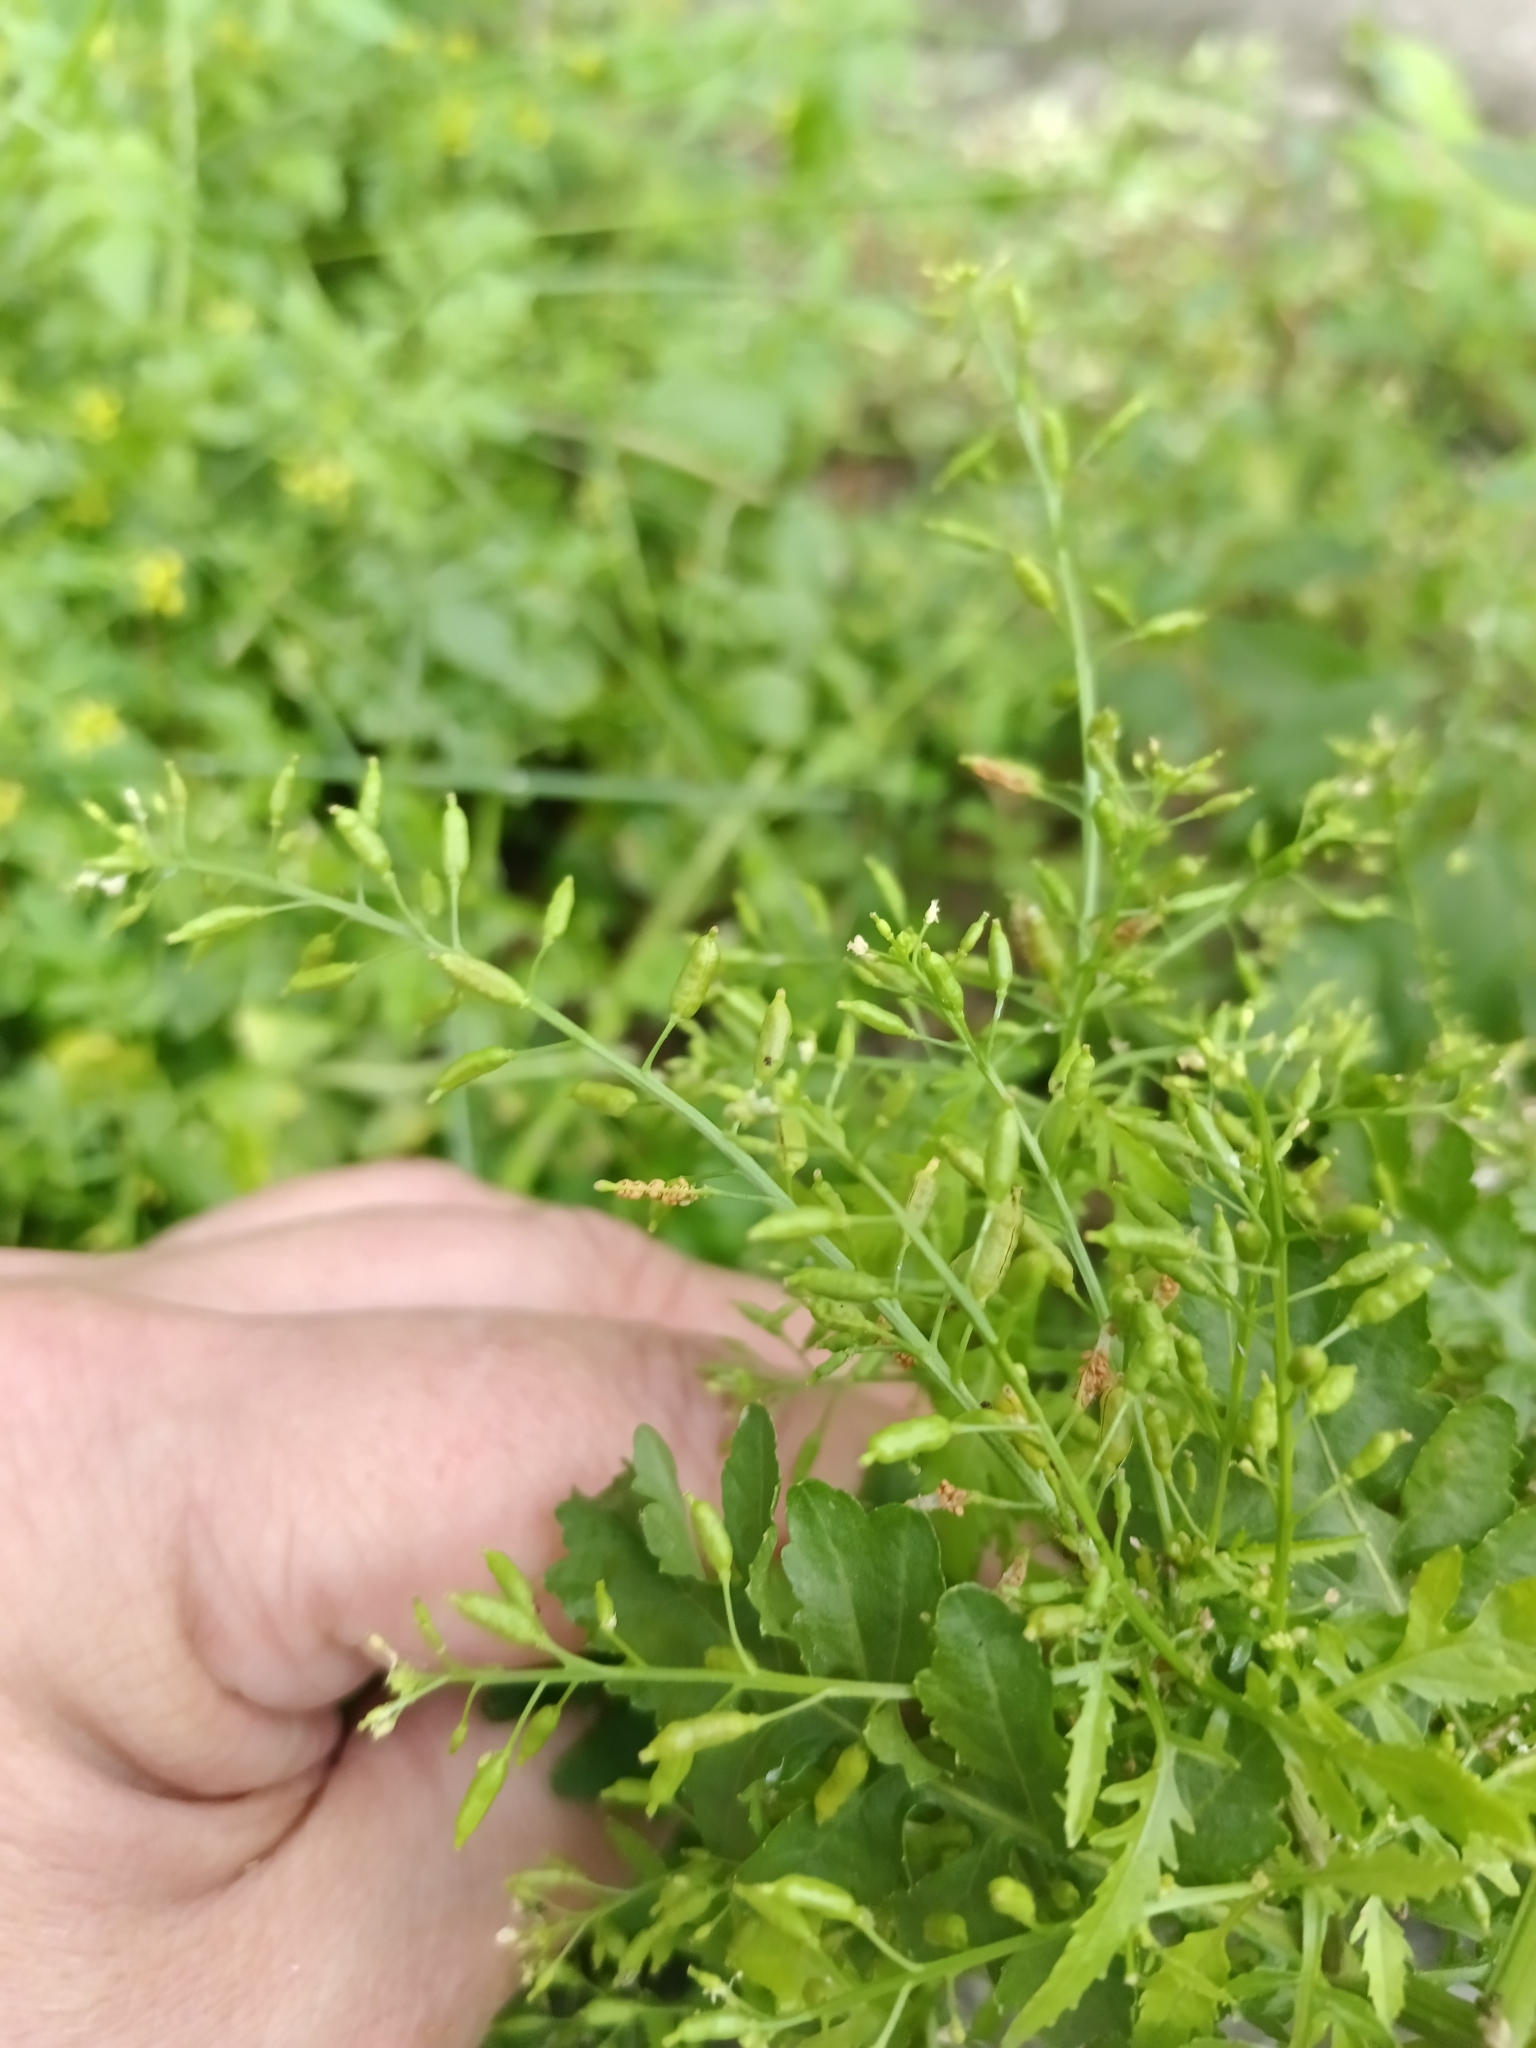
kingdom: Plantae
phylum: Tracheophyta
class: Magnoliopsida
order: Brassicales
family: Brassicaceae
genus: Rorippa
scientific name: Rorippa palustris
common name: Marsh yellow-cress
